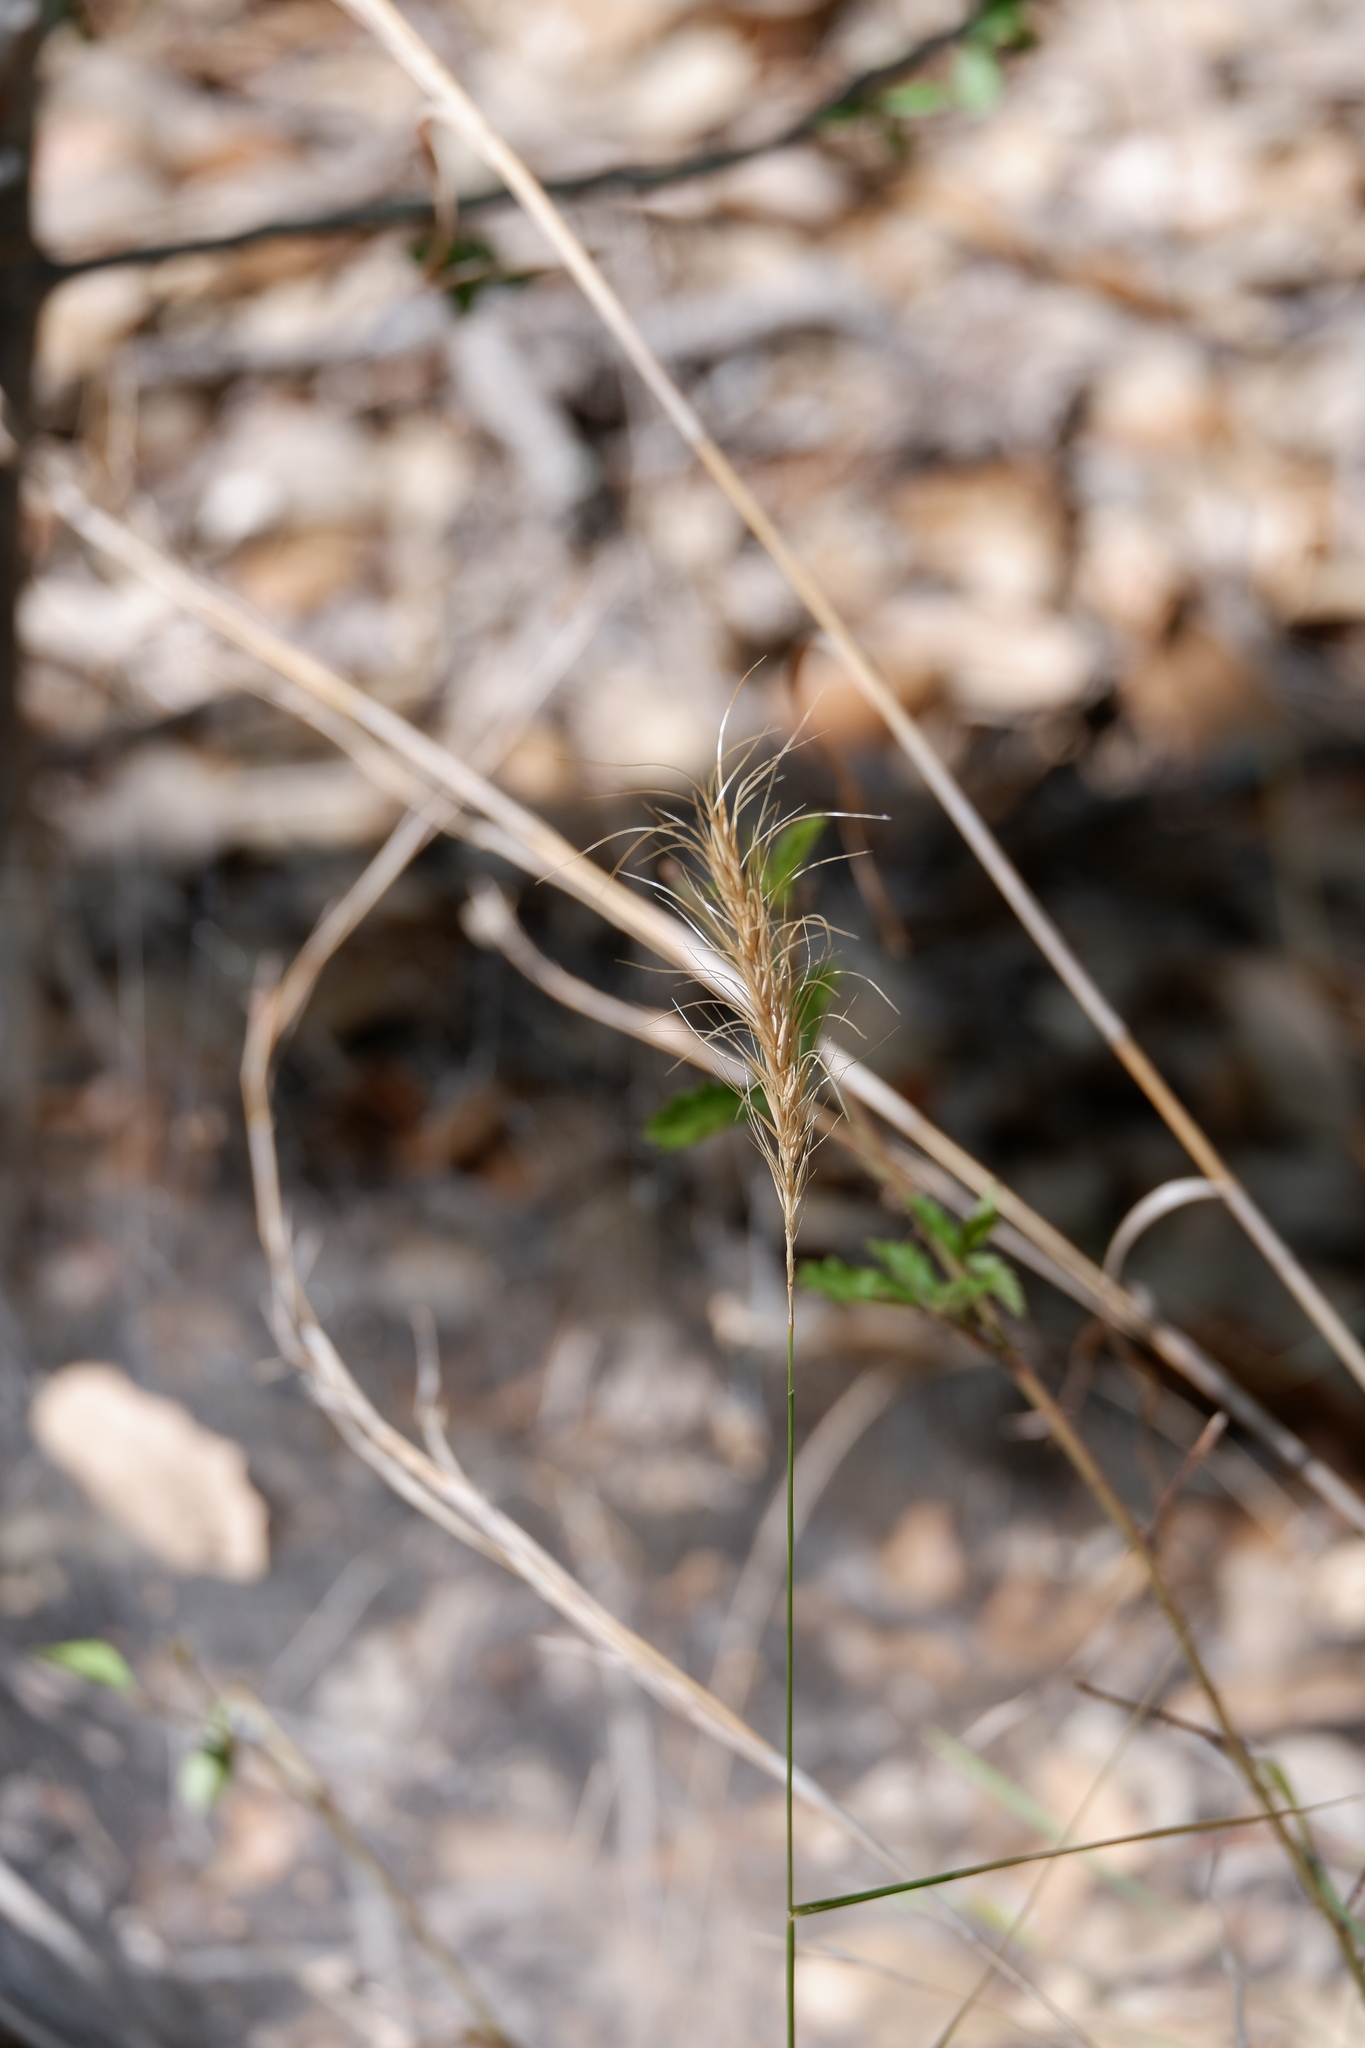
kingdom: Plantae
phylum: Tracheophyta
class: Liliopsida
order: Poales
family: Poaceae
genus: Elymus
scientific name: Elymus canadensis
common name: Canada wild rye
